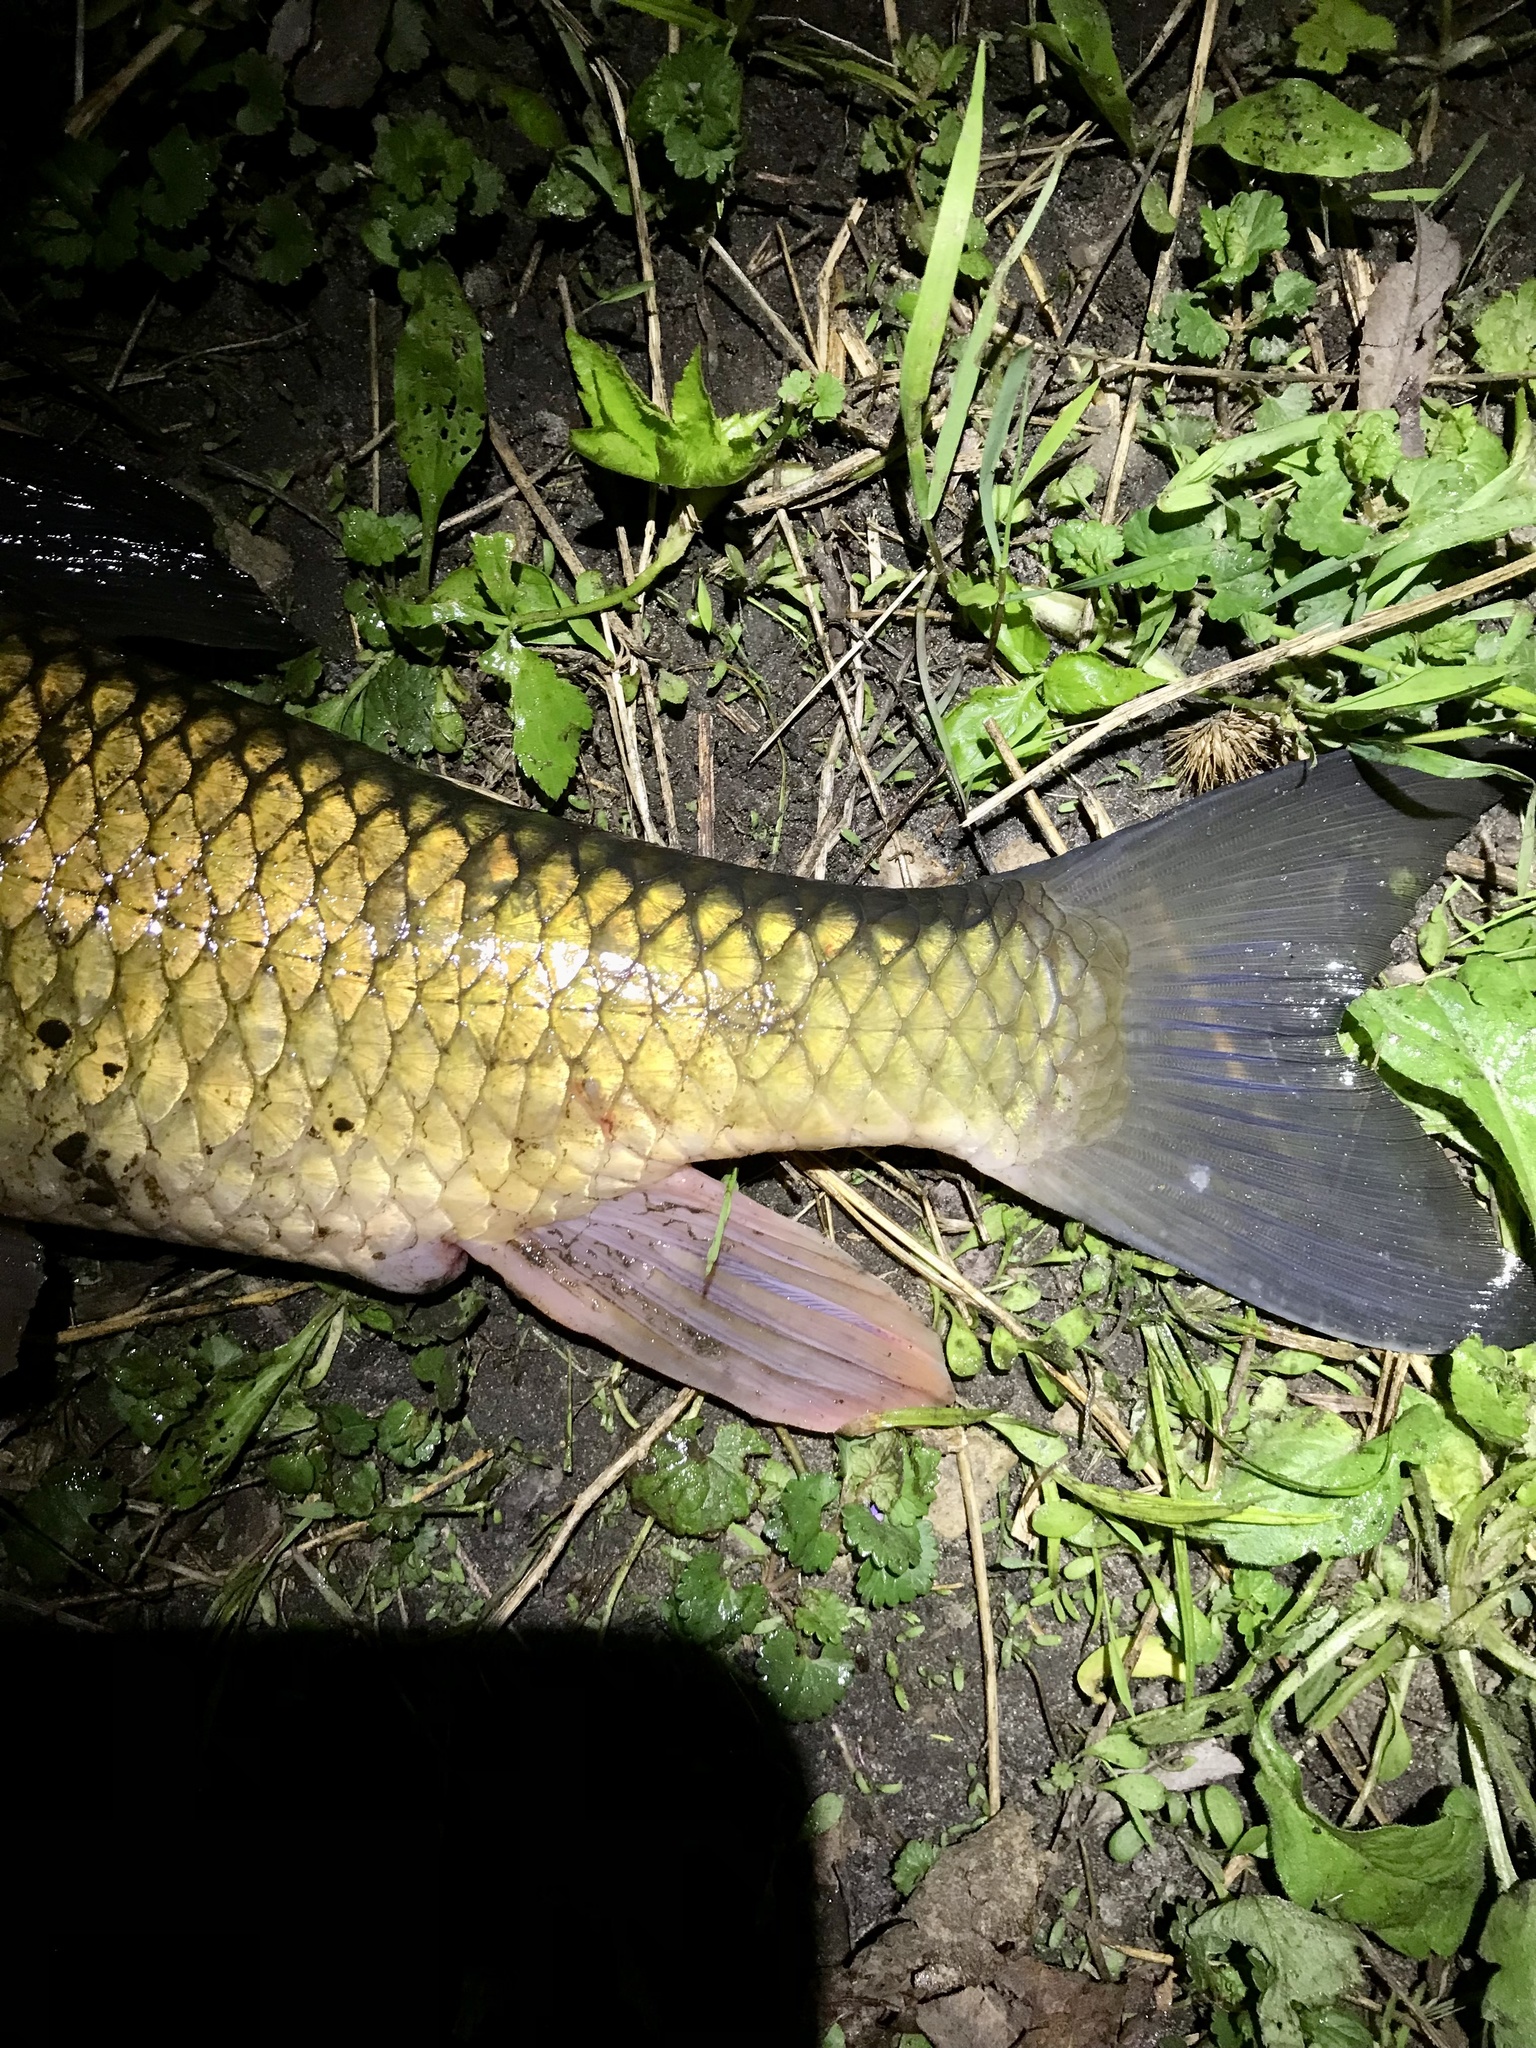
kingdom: Animalia
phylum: Chordata
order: Cypriniformes
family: Catostomidae
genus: Moxostoma
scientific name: Moxostoma erythrurum
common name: Golden redhorse
